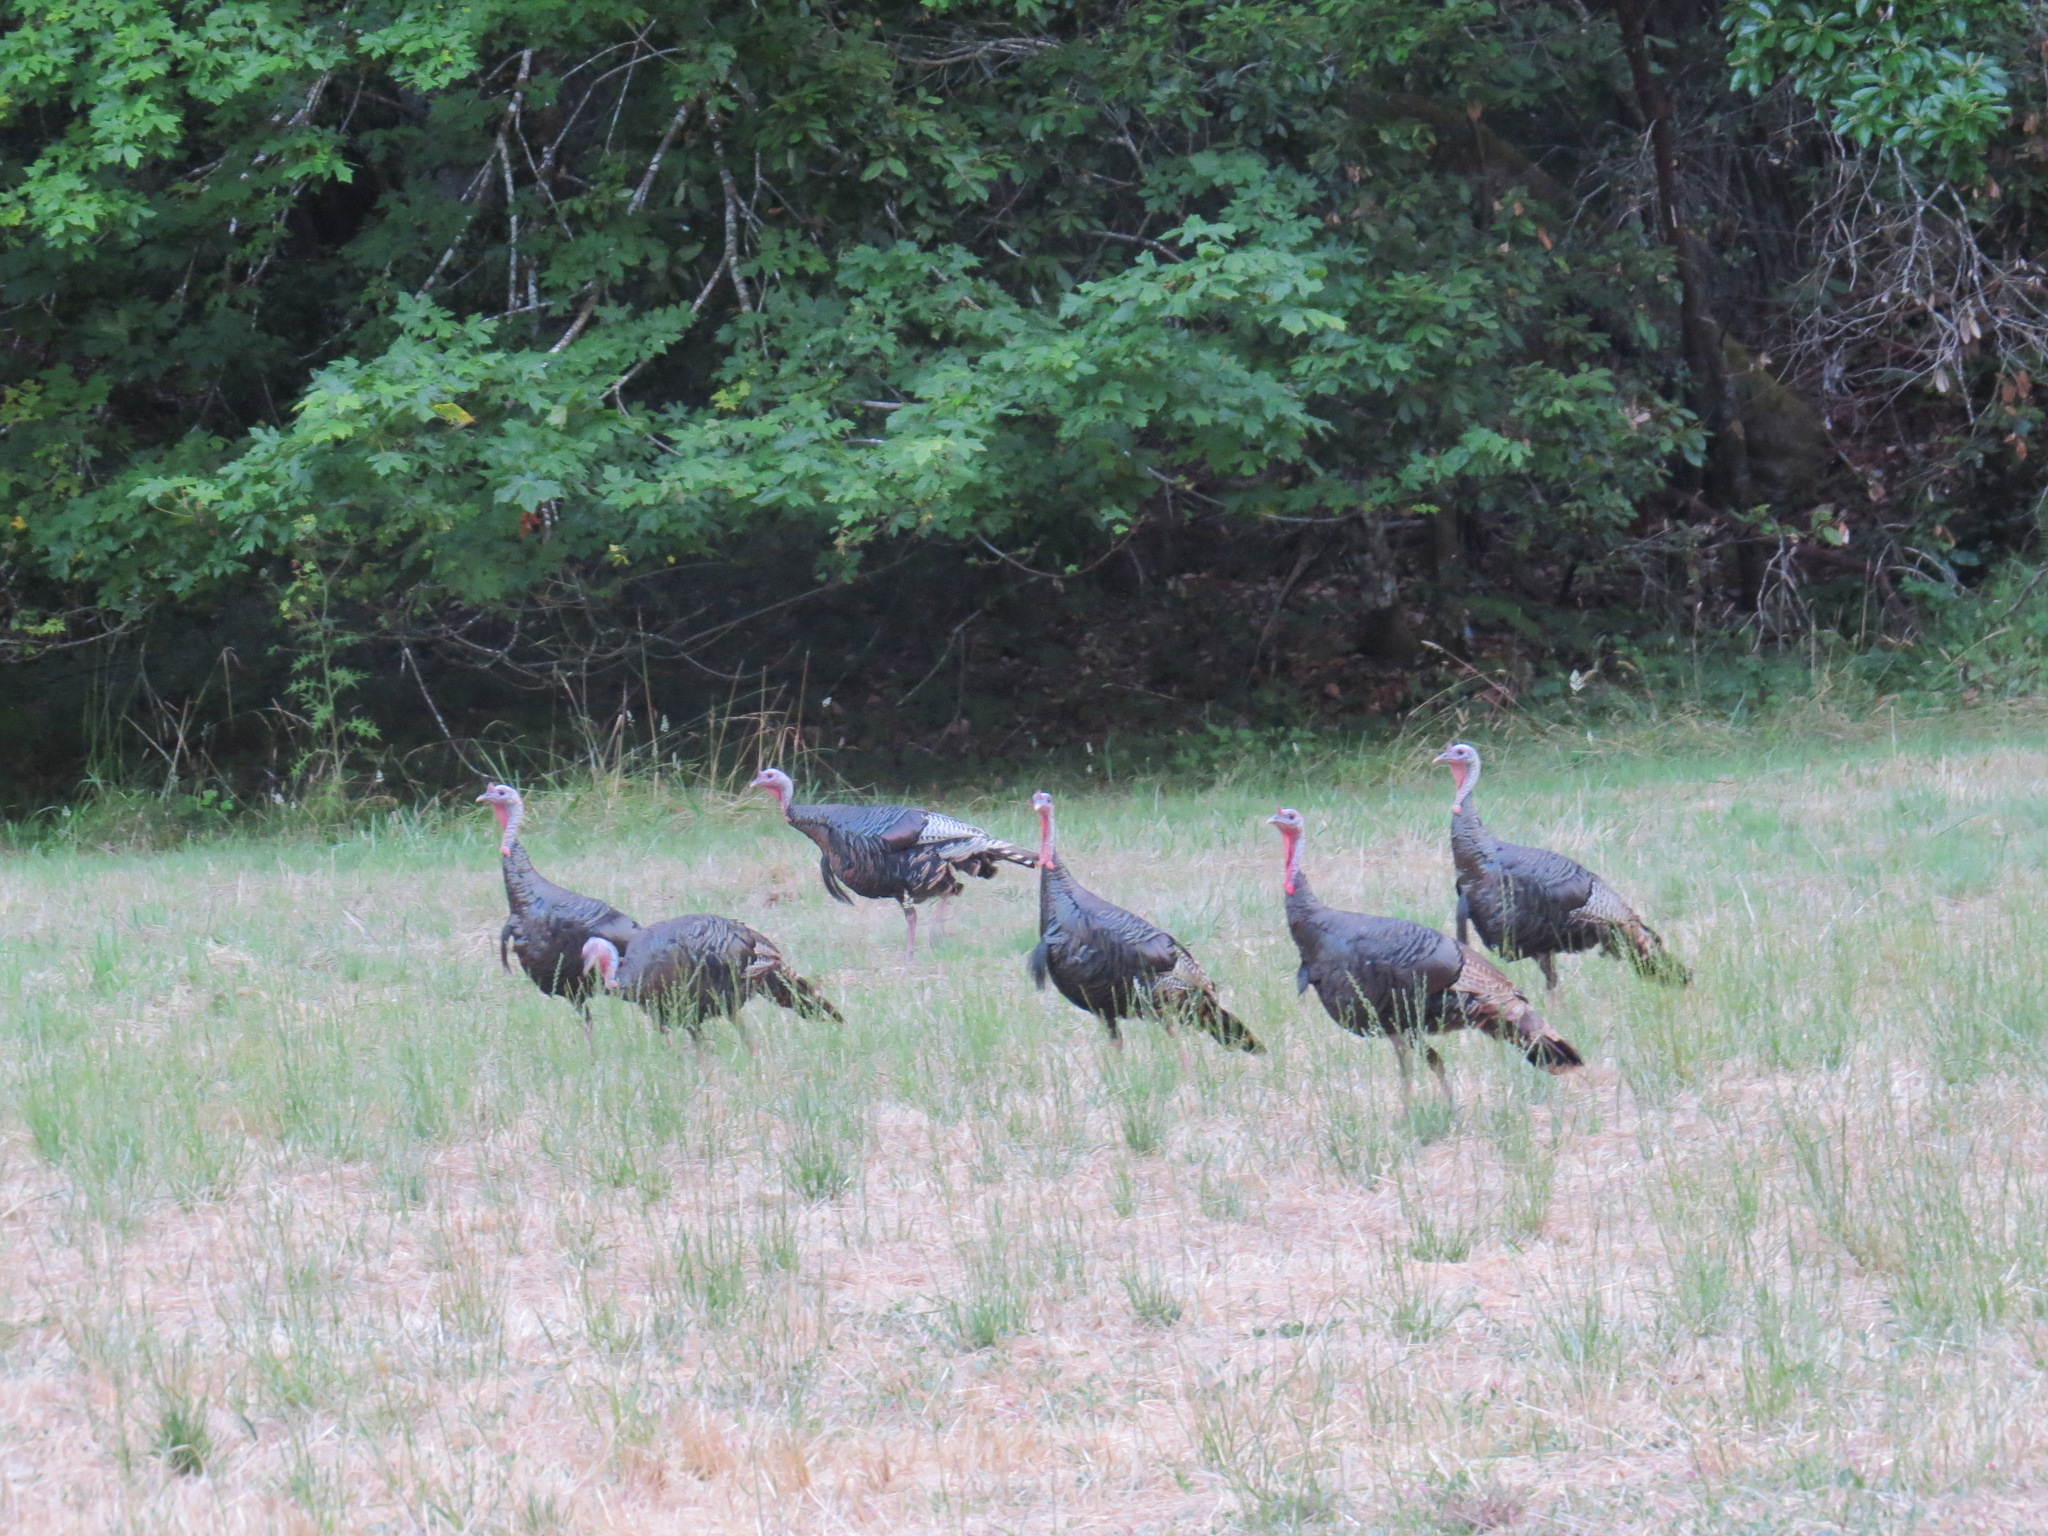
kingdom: Animalia
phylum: Chordata
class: Aves
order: Galliformes
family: Phasianidae
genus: Meleagris
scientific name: Meleagris gallopavo
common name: Wild turkey
